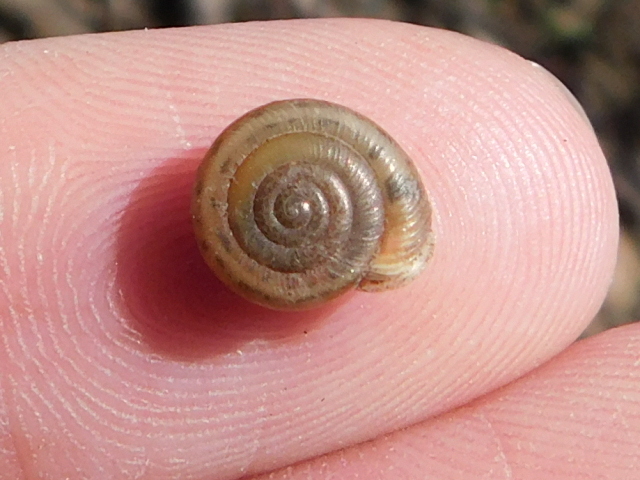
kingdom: Animalia
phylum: Mollusca
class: Gastropoda
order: Stylommatophora
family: Polygyridae
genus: Linisa
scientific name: Linisa texasiana
